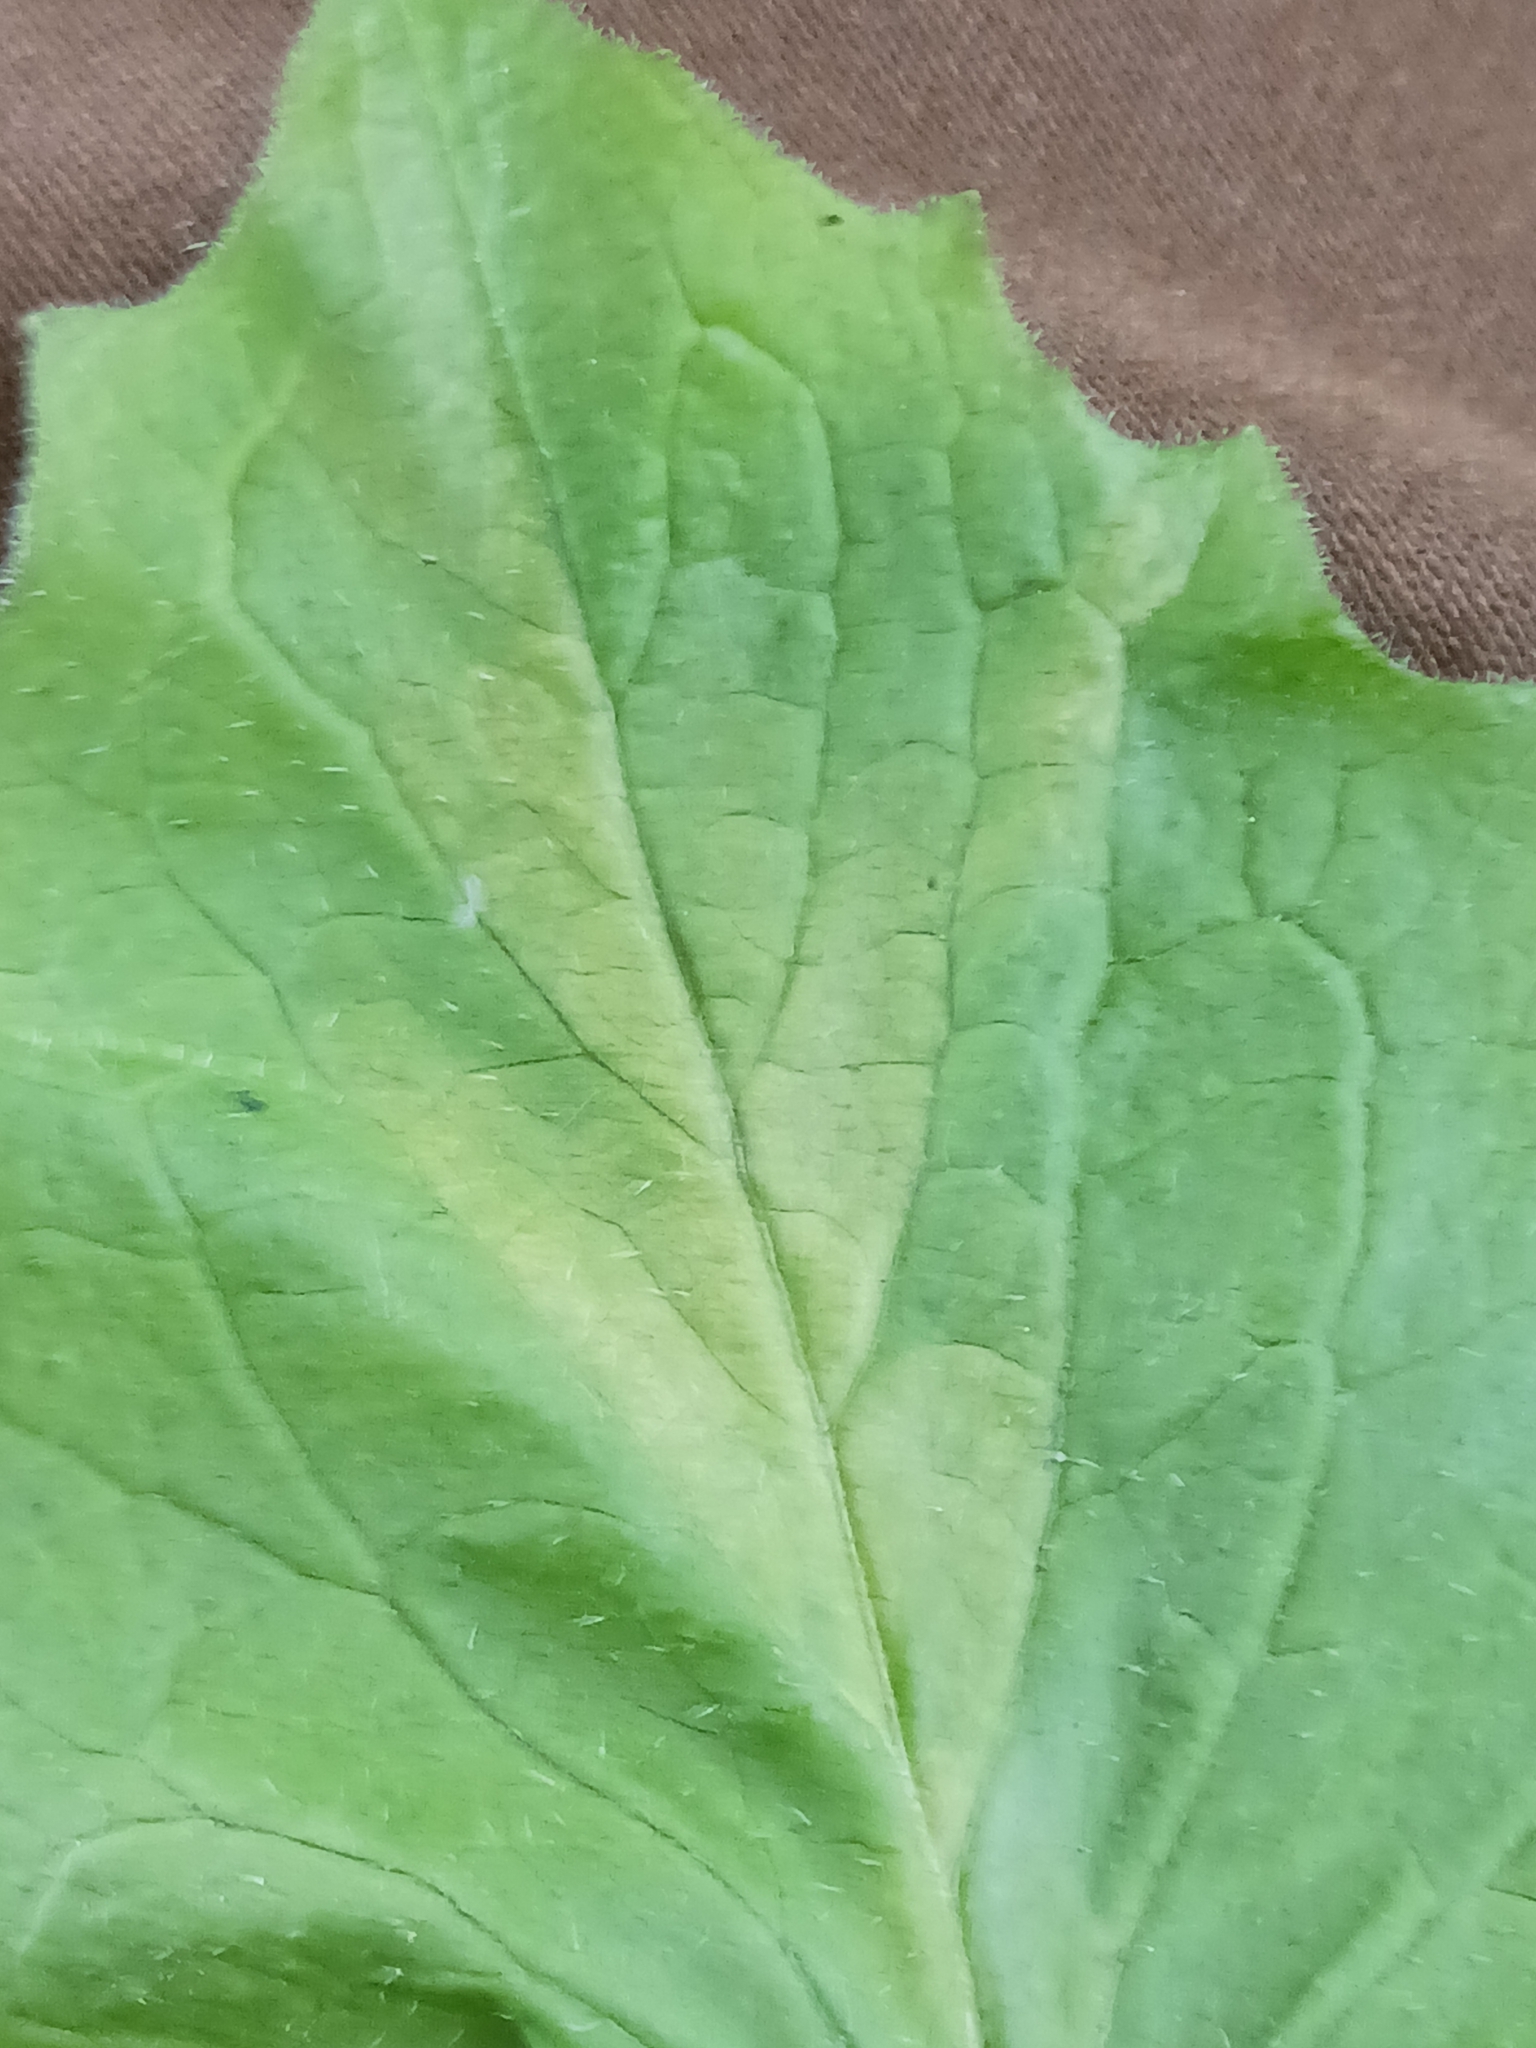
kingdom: Chromista
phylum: Oomycota
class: Peronosporea
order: Peronosporales
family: Peronosporaceae
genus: Bremia
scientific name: Bremia lapsanae
